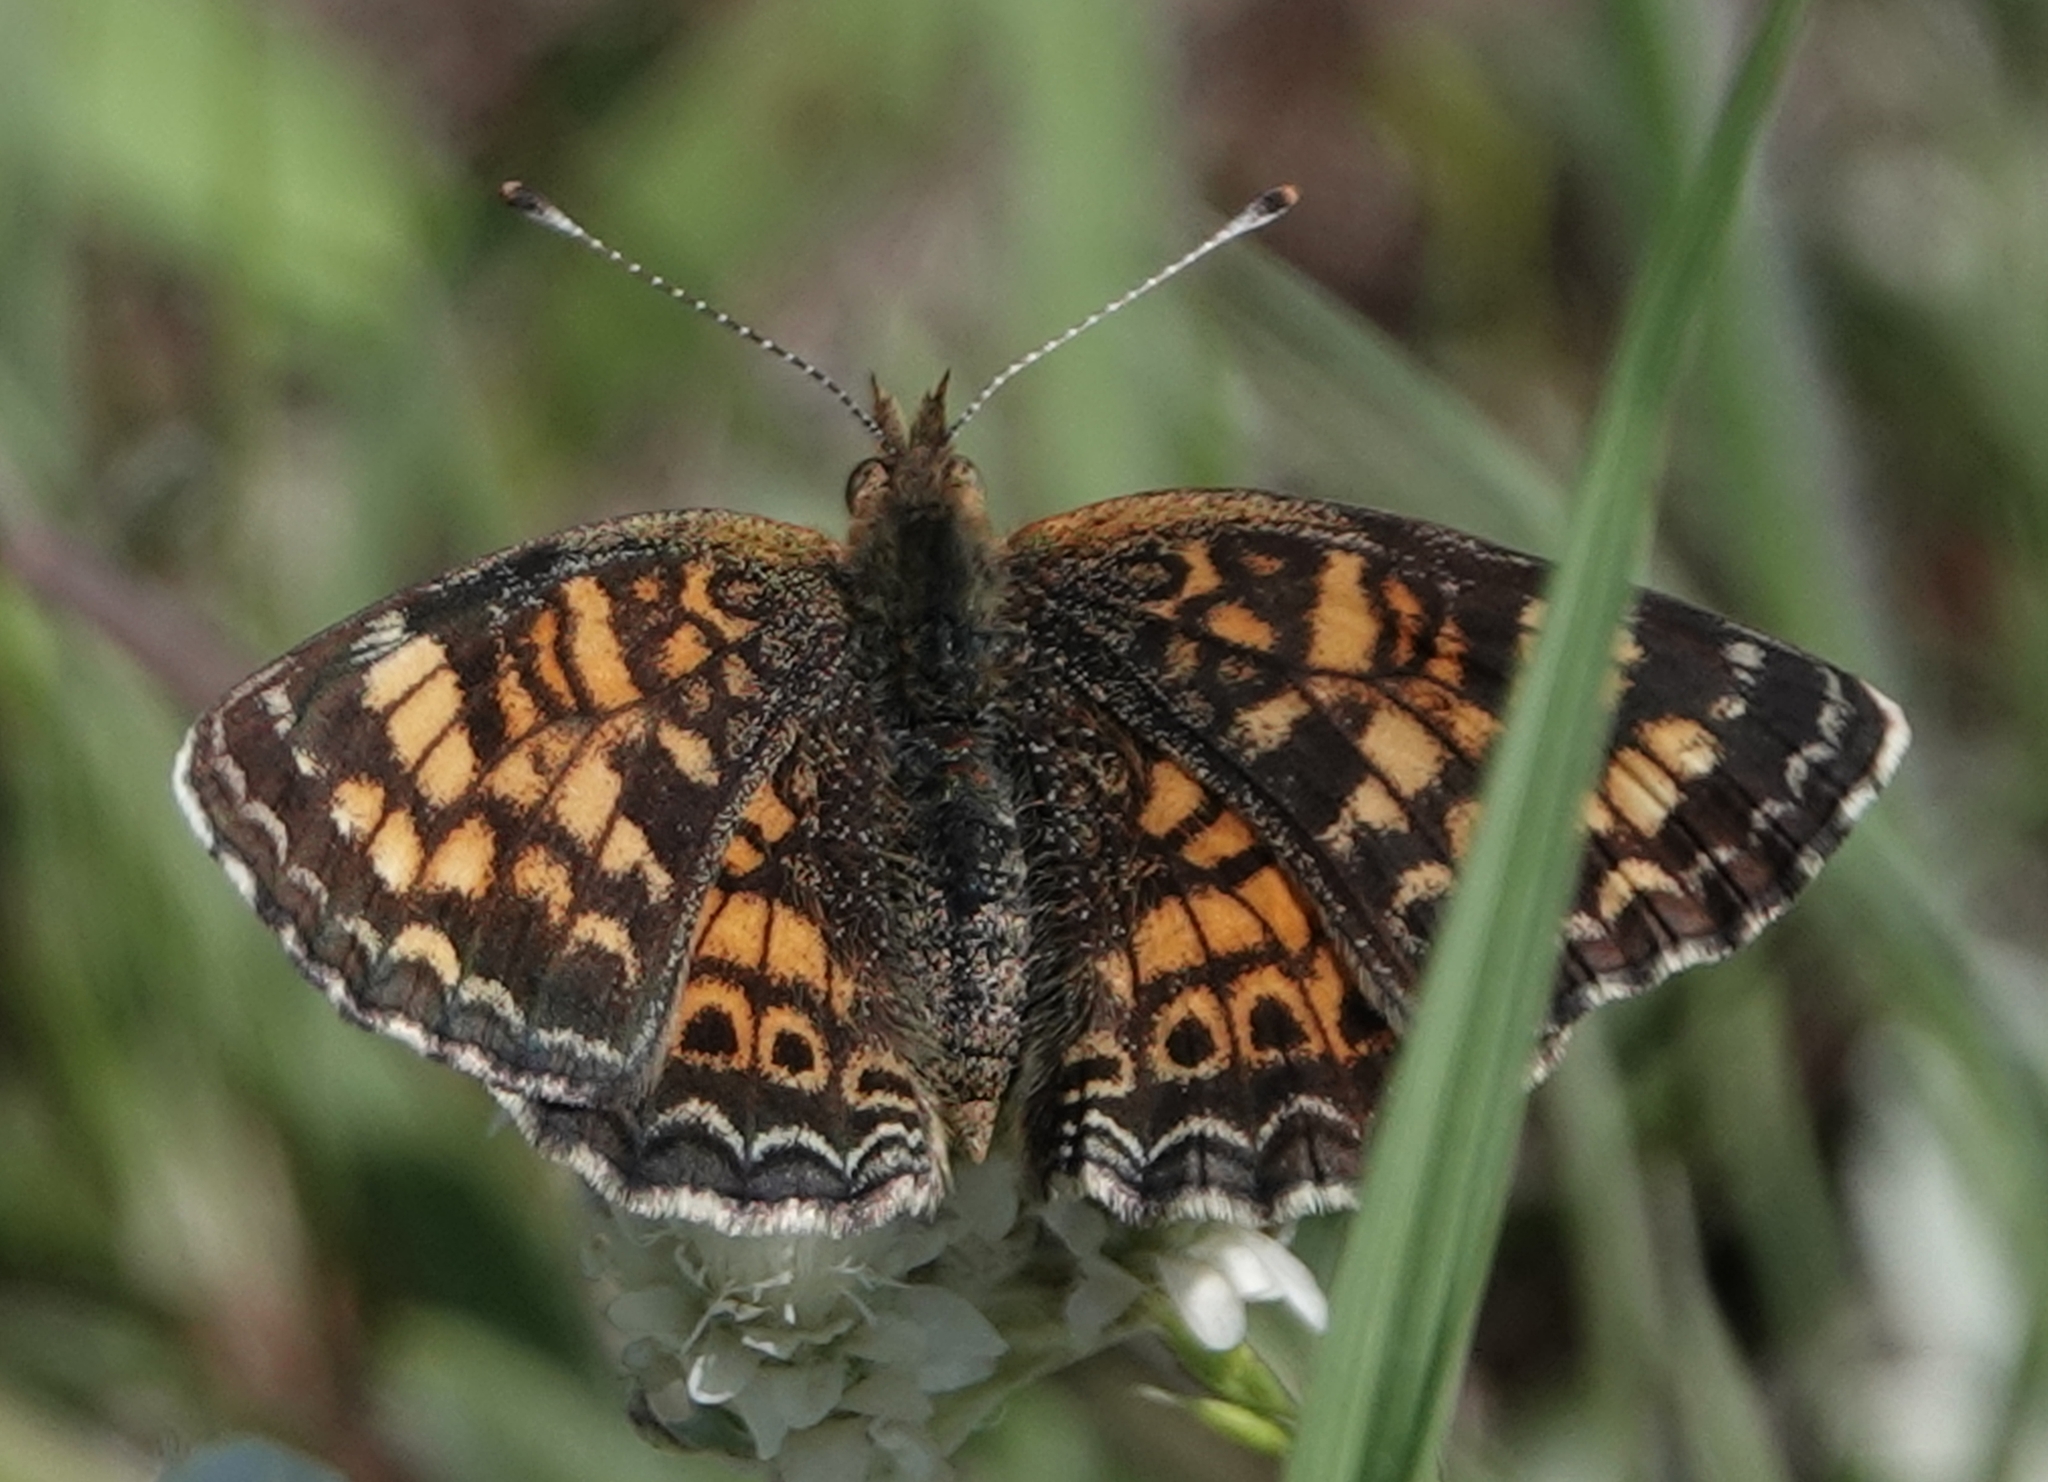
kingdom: Animalia
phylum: Arthropoda
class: Insecta
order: Lepidoptera
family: Nymphalidae
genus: Phyciodes
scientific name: Phyciodes tharos
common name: Pearl crescent
